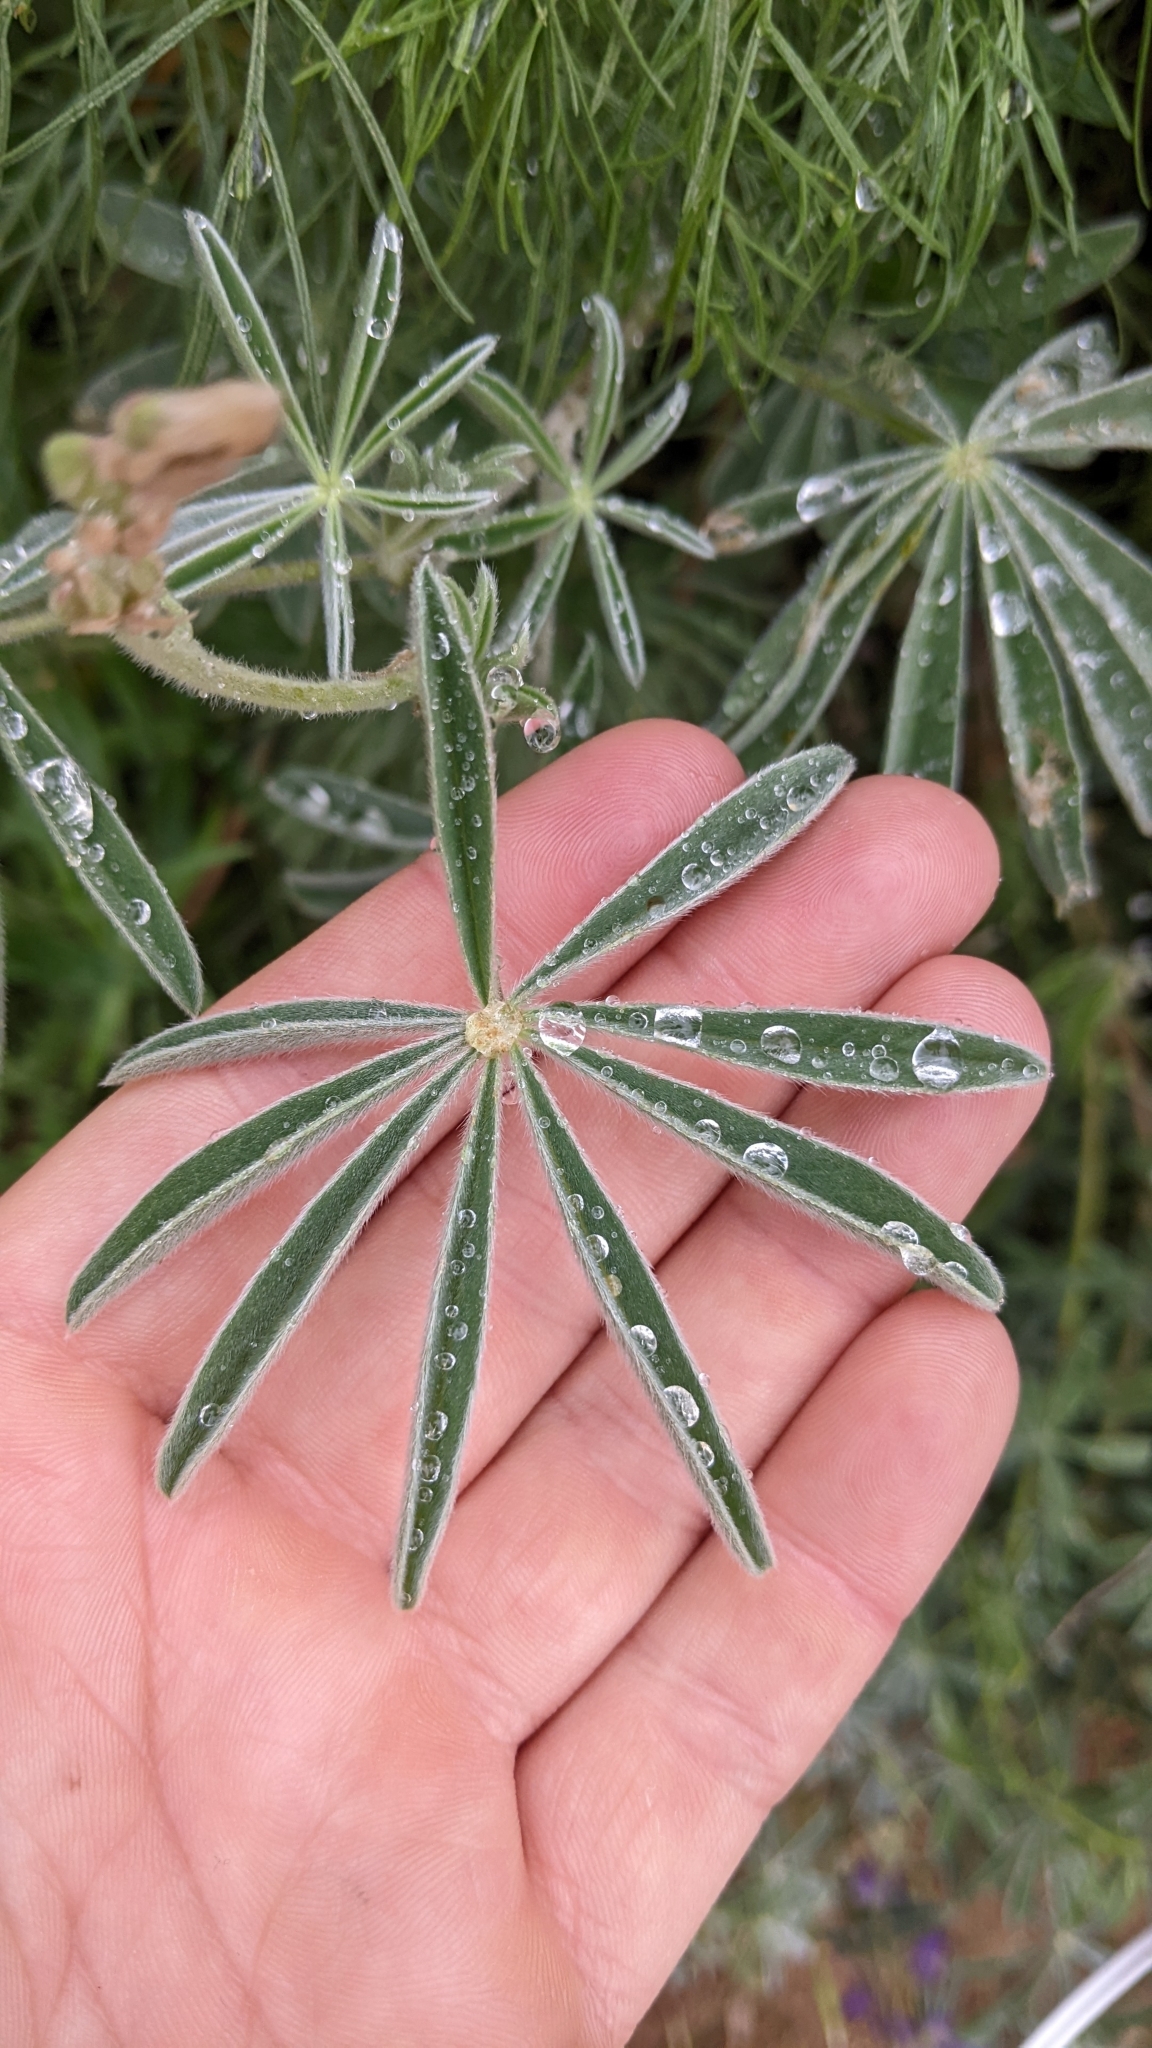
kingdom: Plantae
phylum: Tracheophyta
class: Magnoliopsida
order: Fabales
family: Fabaceae
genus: Lupinus
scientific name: Lupinus formosus
